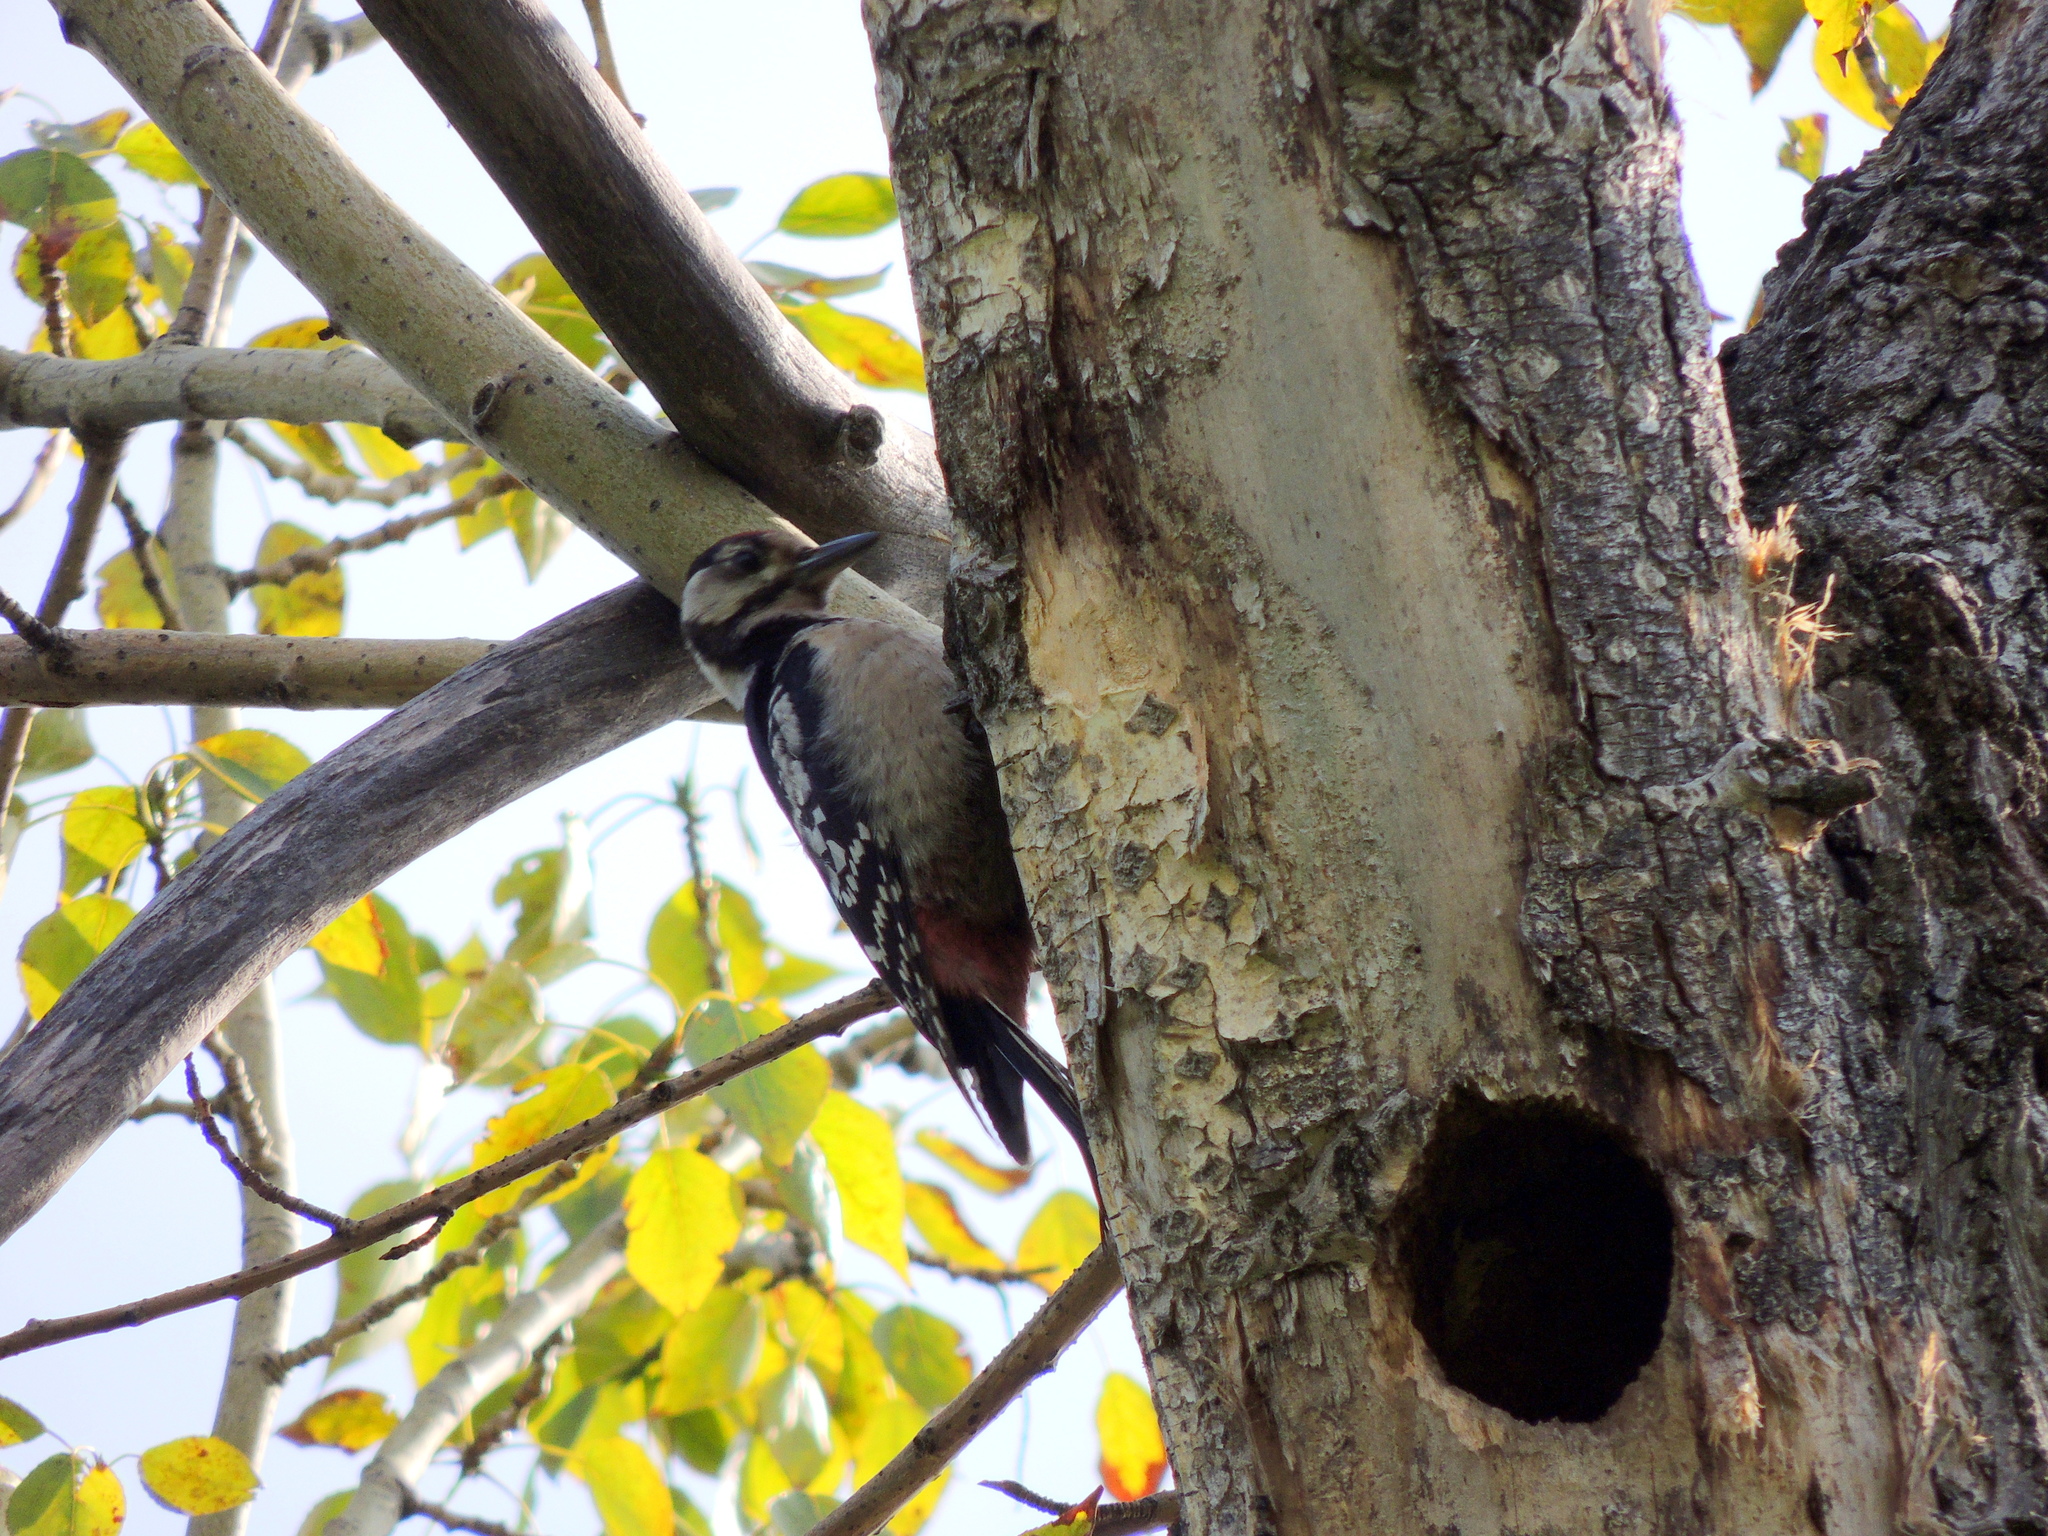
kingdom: Animalia
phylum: Chordata
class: Aves
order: Piciformes
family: Picidae
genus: Dendrocopos
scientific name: Dendrocopos major
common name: Great spotted woodpecker
